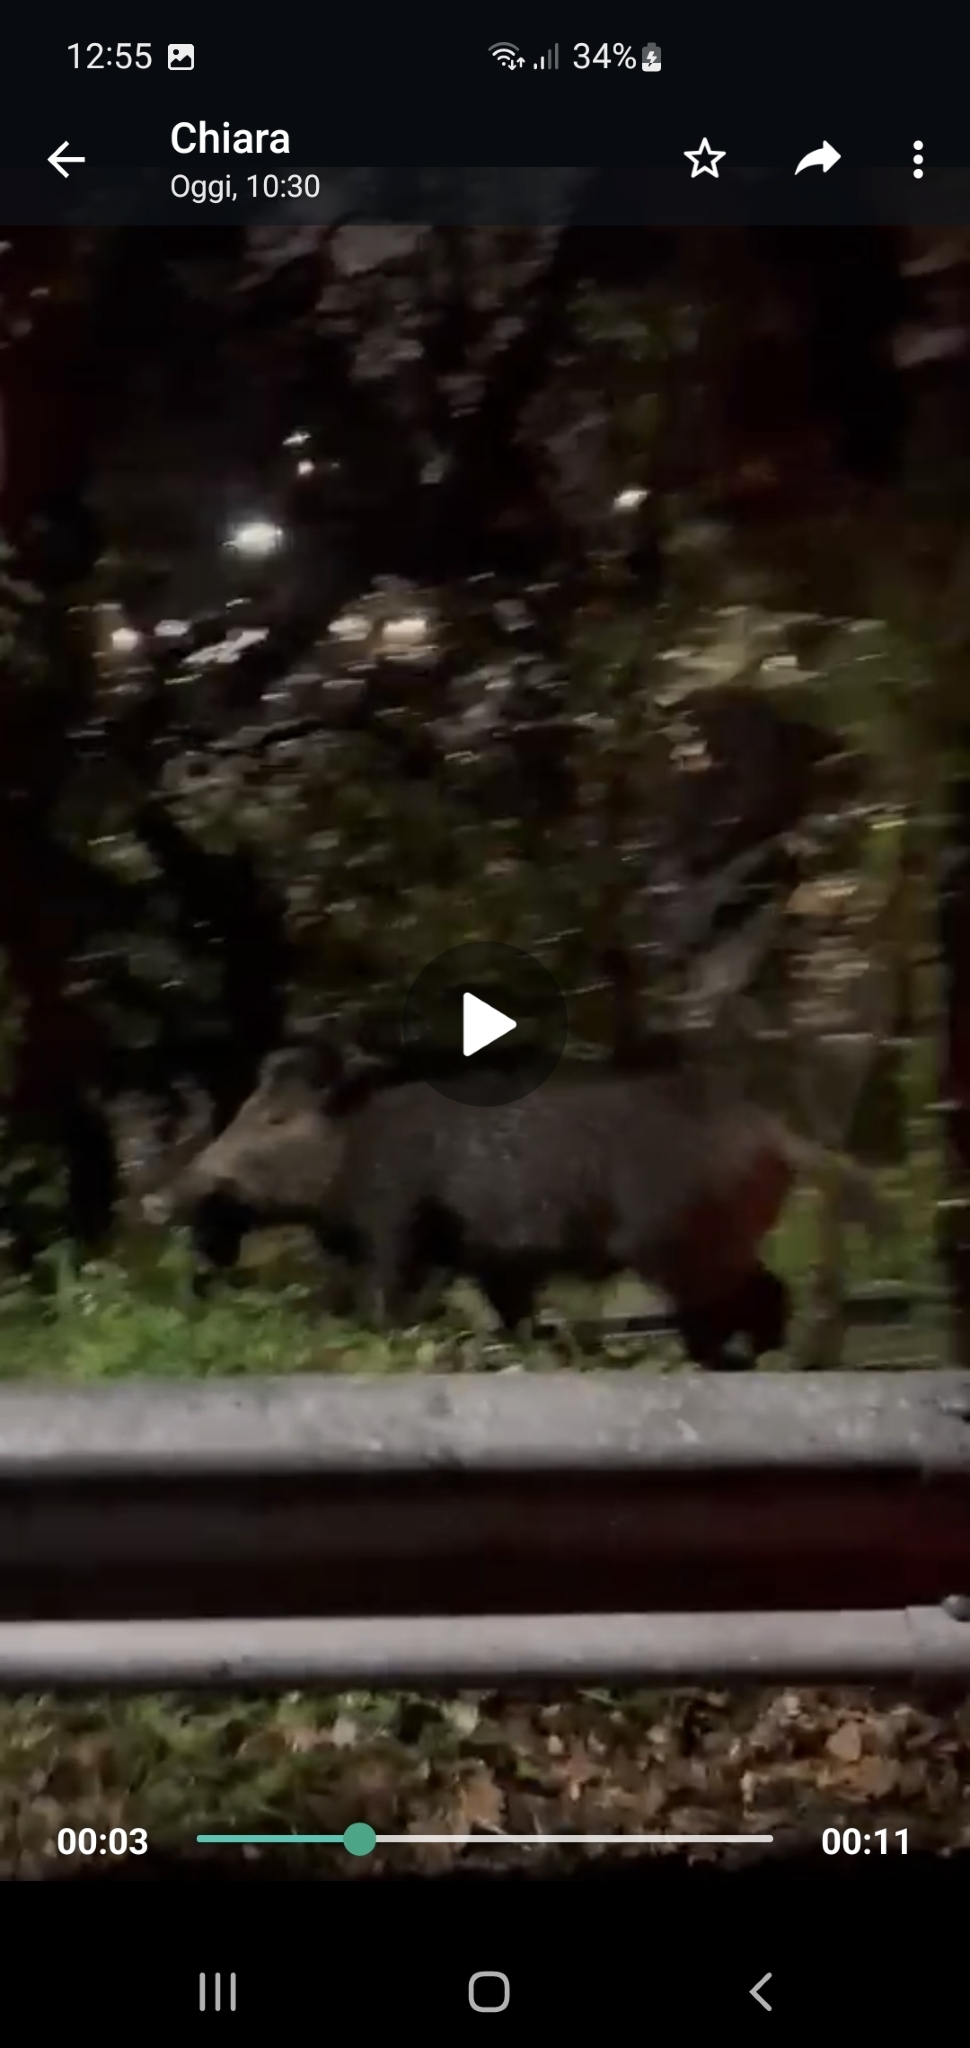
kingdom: Animalia
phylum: Chordata
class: Mammalia
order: Artiodactyla
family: Suidae
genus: Sus
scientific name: Sus scrofa
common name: Wild boar
